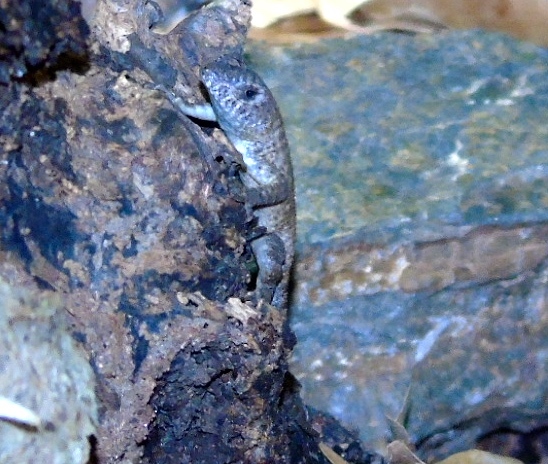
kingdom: Animalia
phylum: Chordata
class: Squamata
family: Phrynosomatidae
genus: Sceloporus
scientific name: Sceloporus nelsoni
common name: Nelson's spiny lizard
